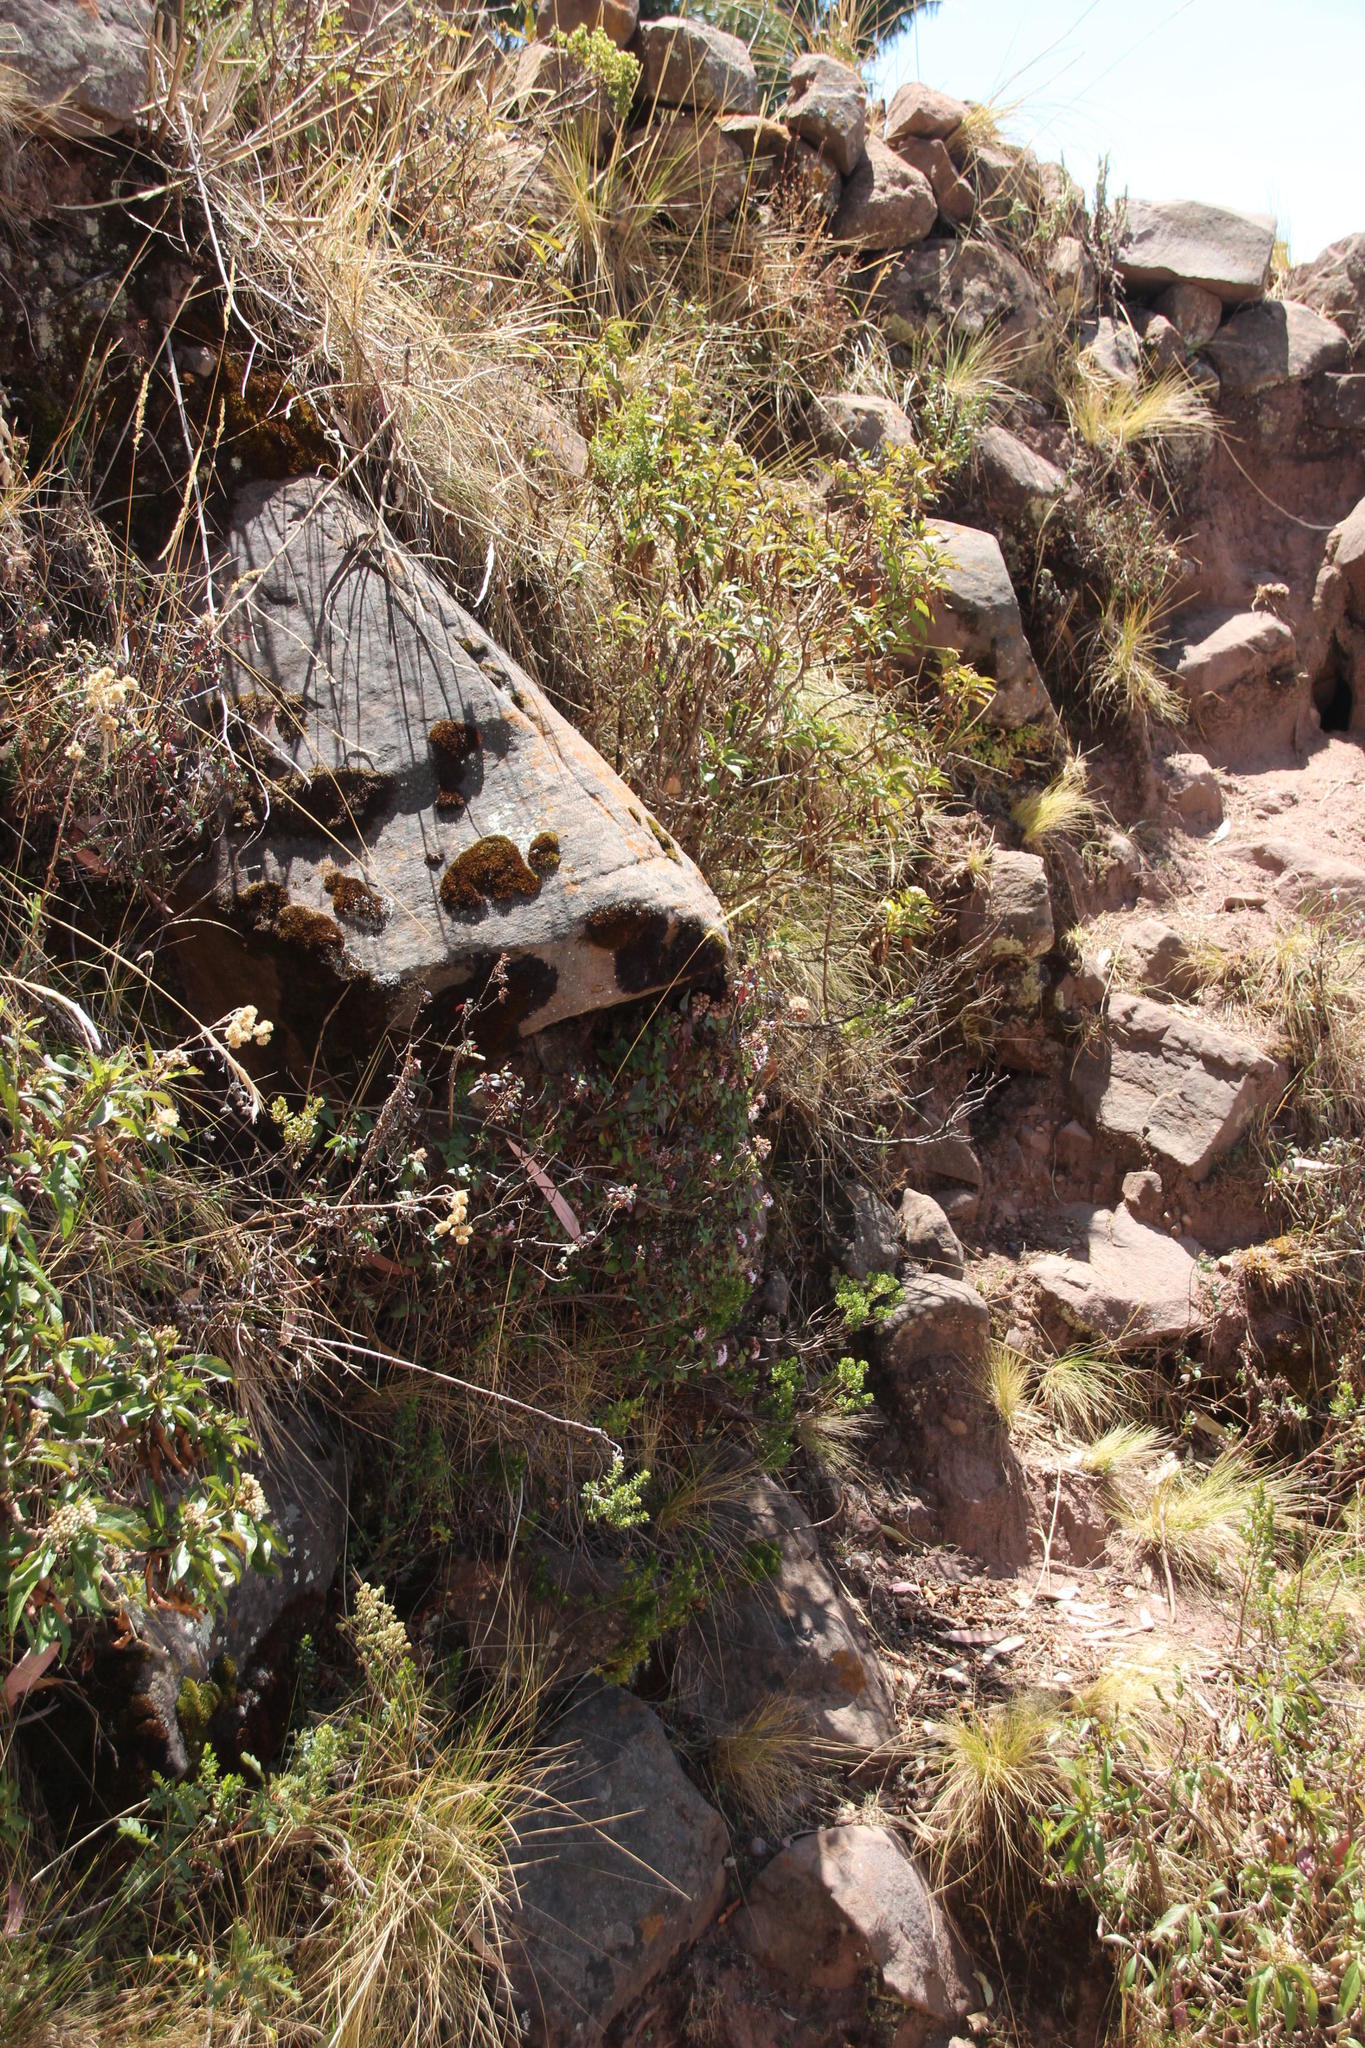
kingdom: Plantae
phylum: Tracheophyta
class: Magnoliopsida
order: Asterales
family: Asteraceae
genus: Ageratina
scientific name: Ageratina pentlandiana
